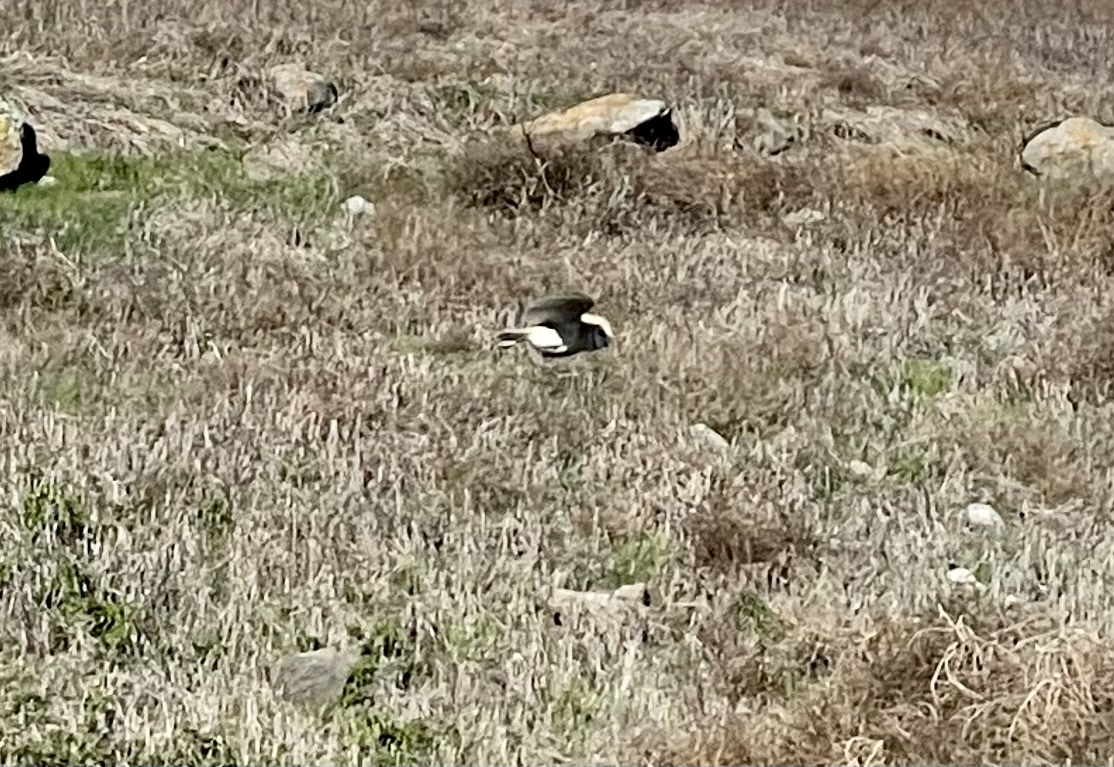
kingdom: Animalia
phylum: Chordata
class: Aves
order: Strigiformes
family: Tytonidae
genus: Tyto
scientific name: Tyto alba
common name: Barn owl
